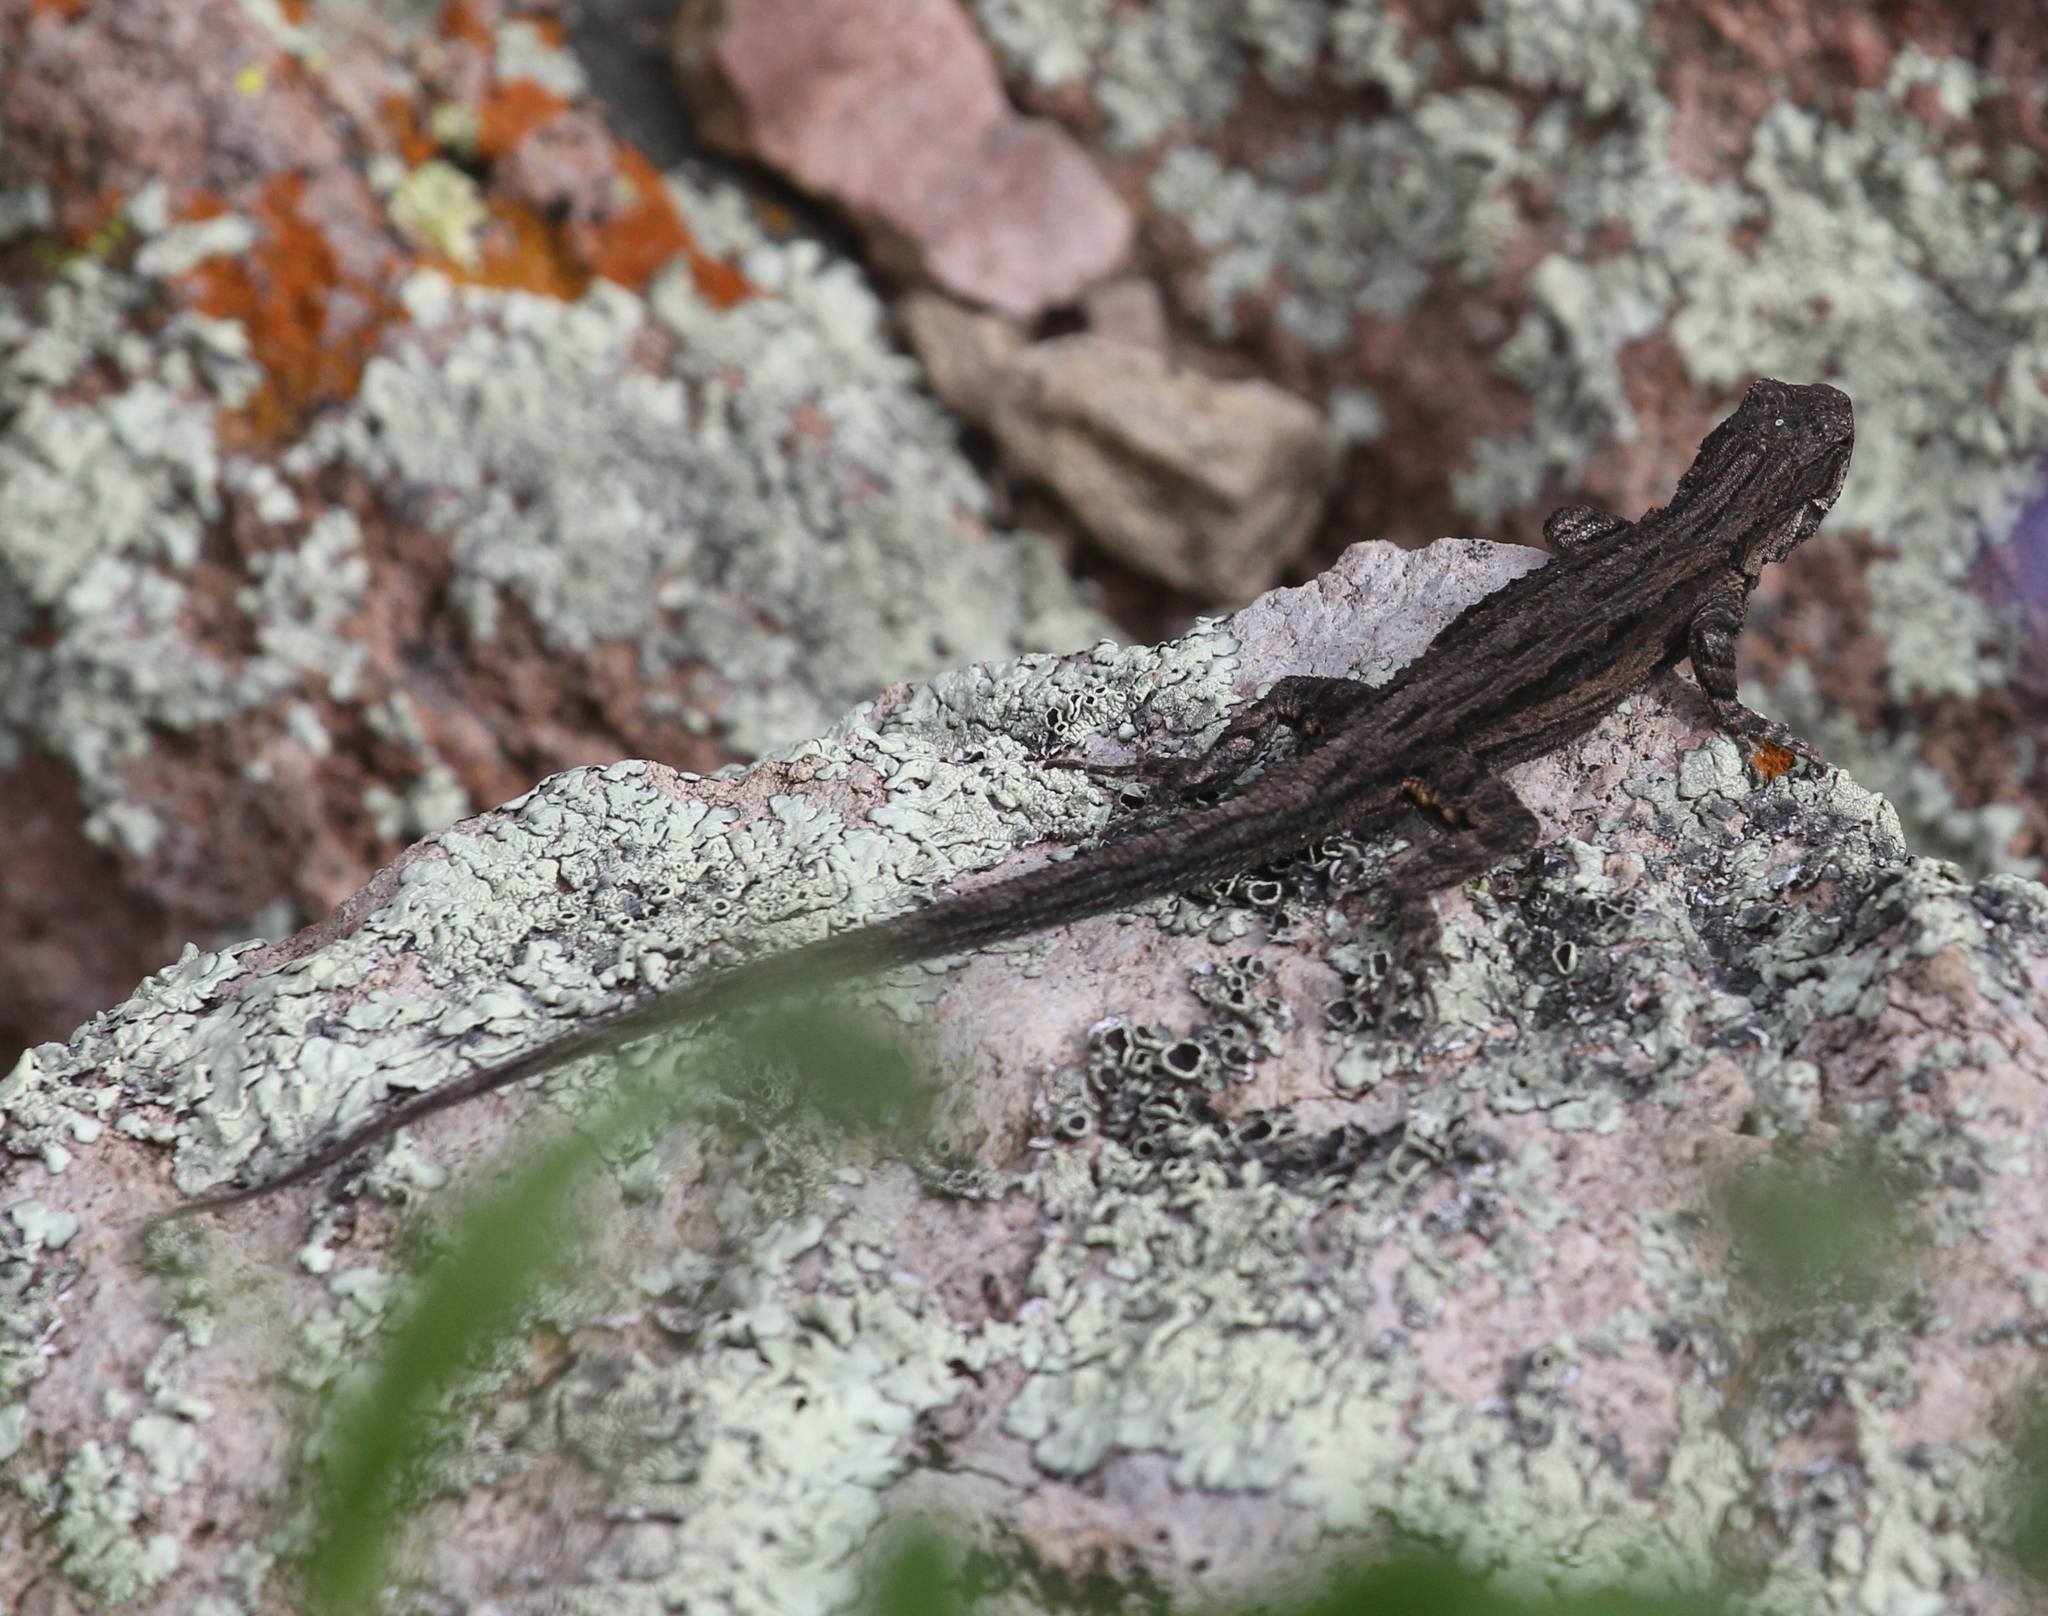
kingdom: Animalia
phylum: Chordata
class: Squamata
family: Phrynosomatidae
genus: Urosaurus
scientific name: Urosaurus ornatus
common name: Ornate tree lizard
